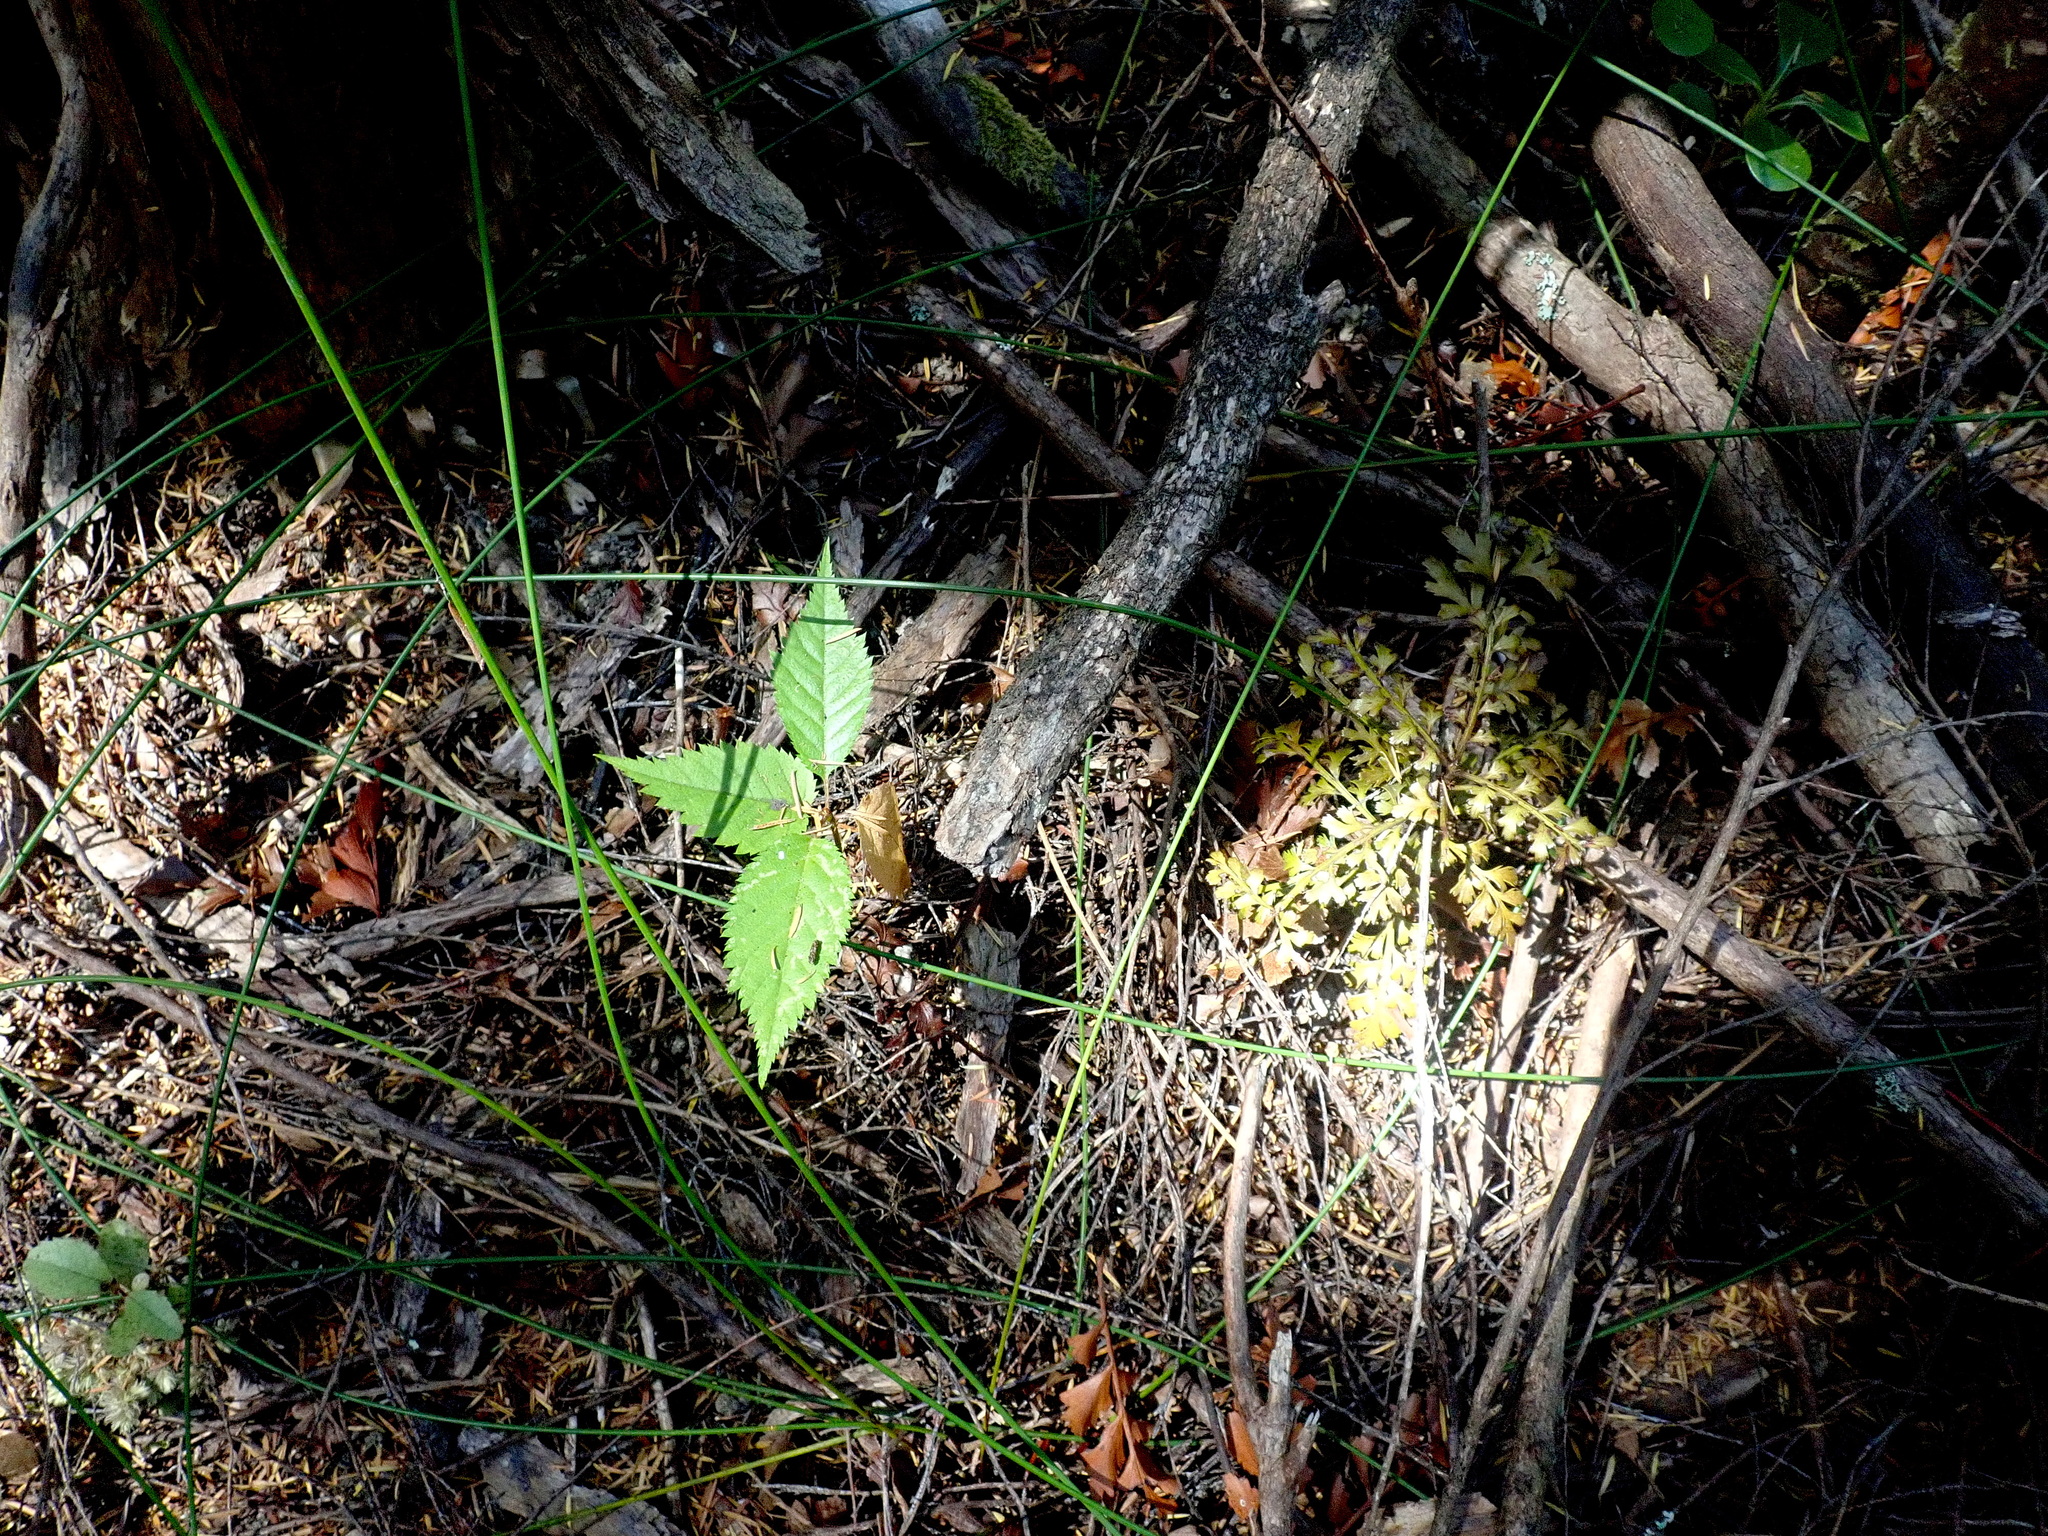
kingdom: Plantae
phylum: Tracheophyta
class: Magnoliopsida
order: Rosales
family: Rosaceae
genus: Prunus
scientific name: Prunus serrulata
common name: Japanese cherry
